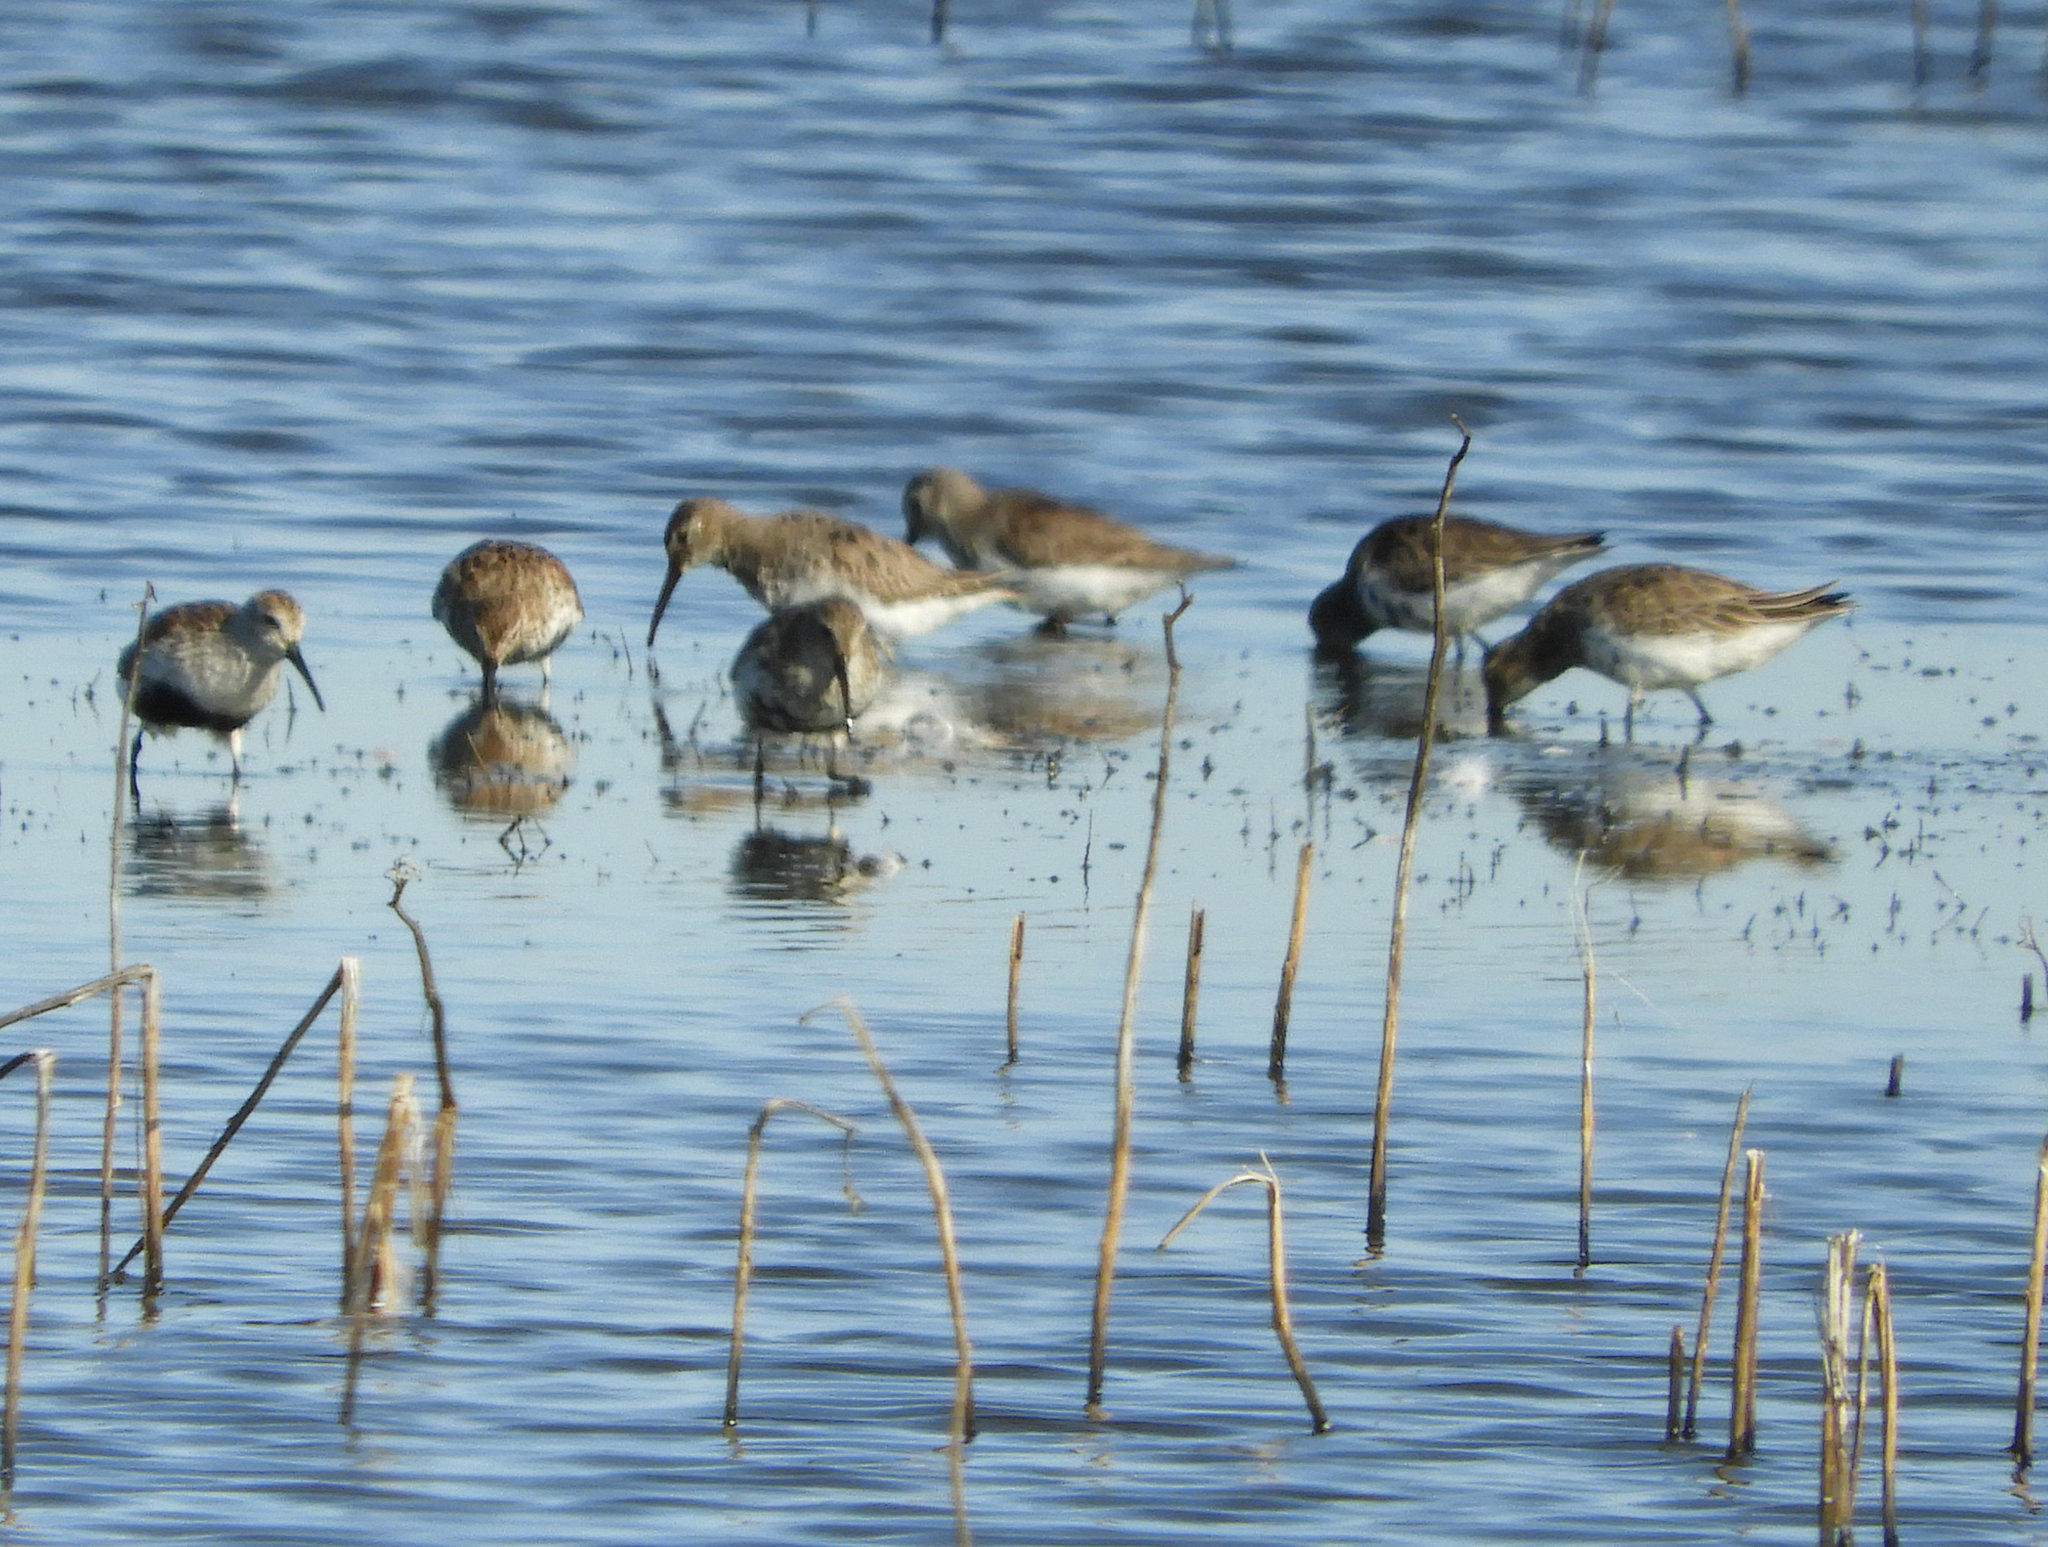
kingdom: Animalia
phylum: Chordata
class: Aves
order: Charadriiformes
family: Scolopacidae
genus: Calidris
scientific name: Calidris alpina
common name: Dunlin
